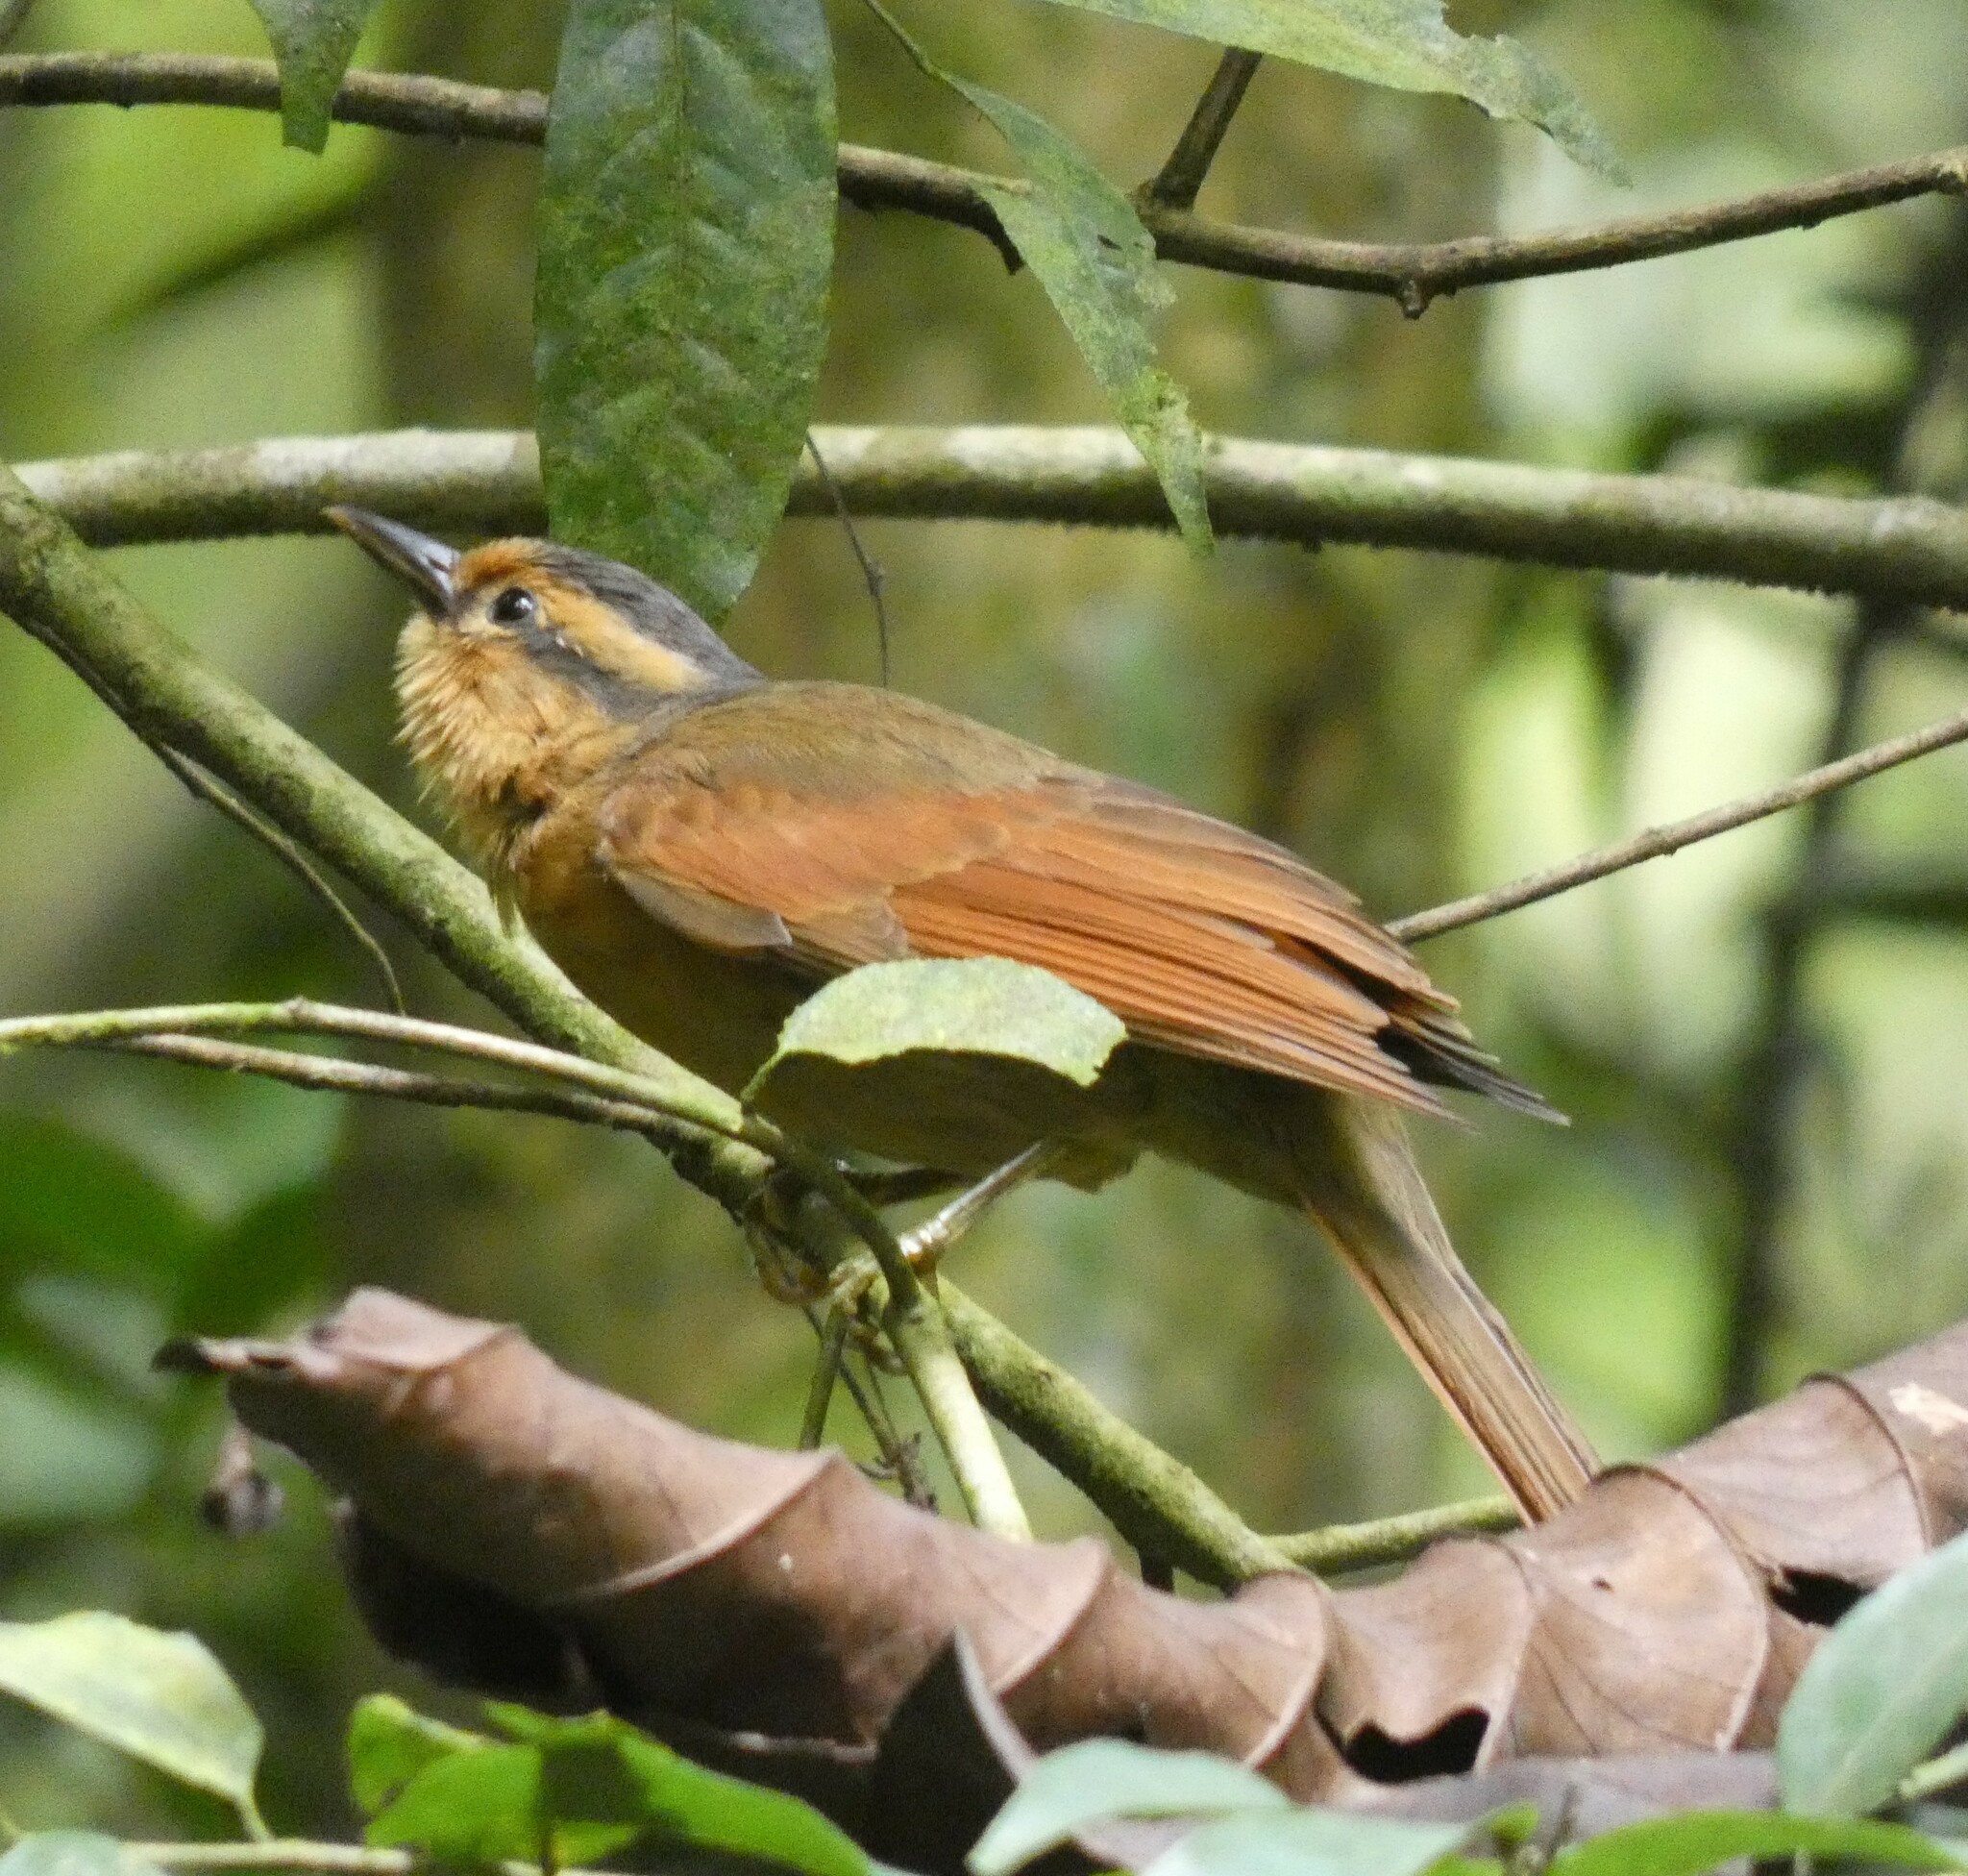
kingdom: Animalia
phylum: Chordata
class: Aves
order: Passeriformes
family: Furnariidae
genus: Philydor
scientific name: Philydor rufum
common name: Buff-fronted foliage-gleaner
